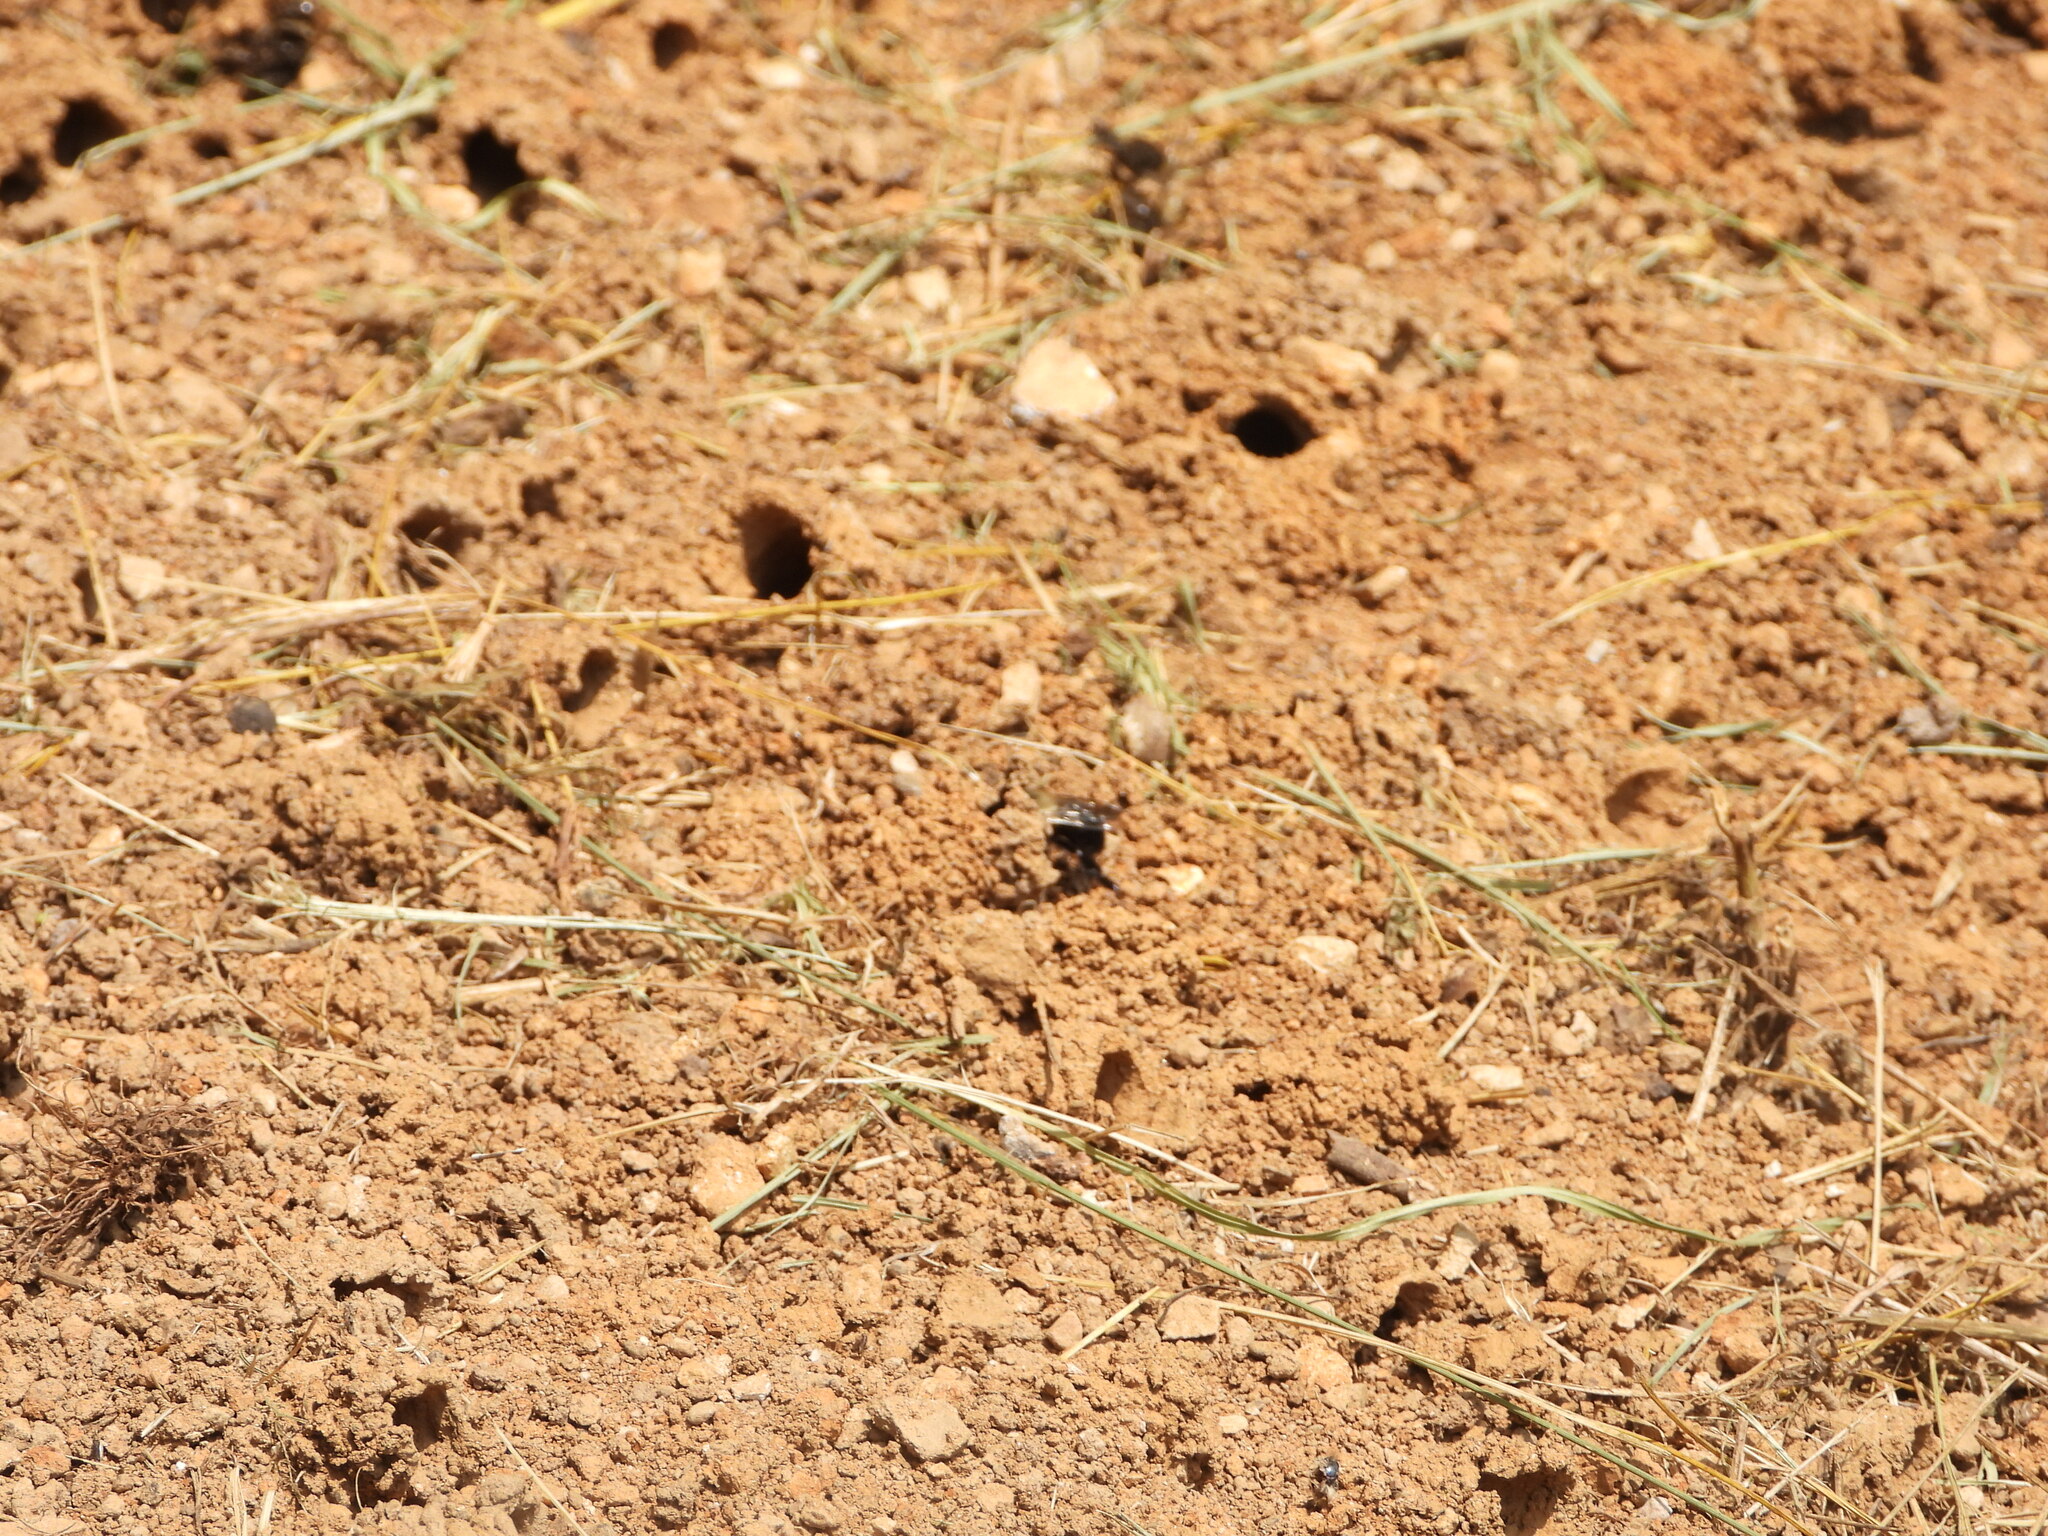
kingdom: Animalia
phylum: Arthropoda
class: Insecta
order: Hymenoptera
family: Apidae
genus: Anthophora
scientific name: Anthophora abrupta
